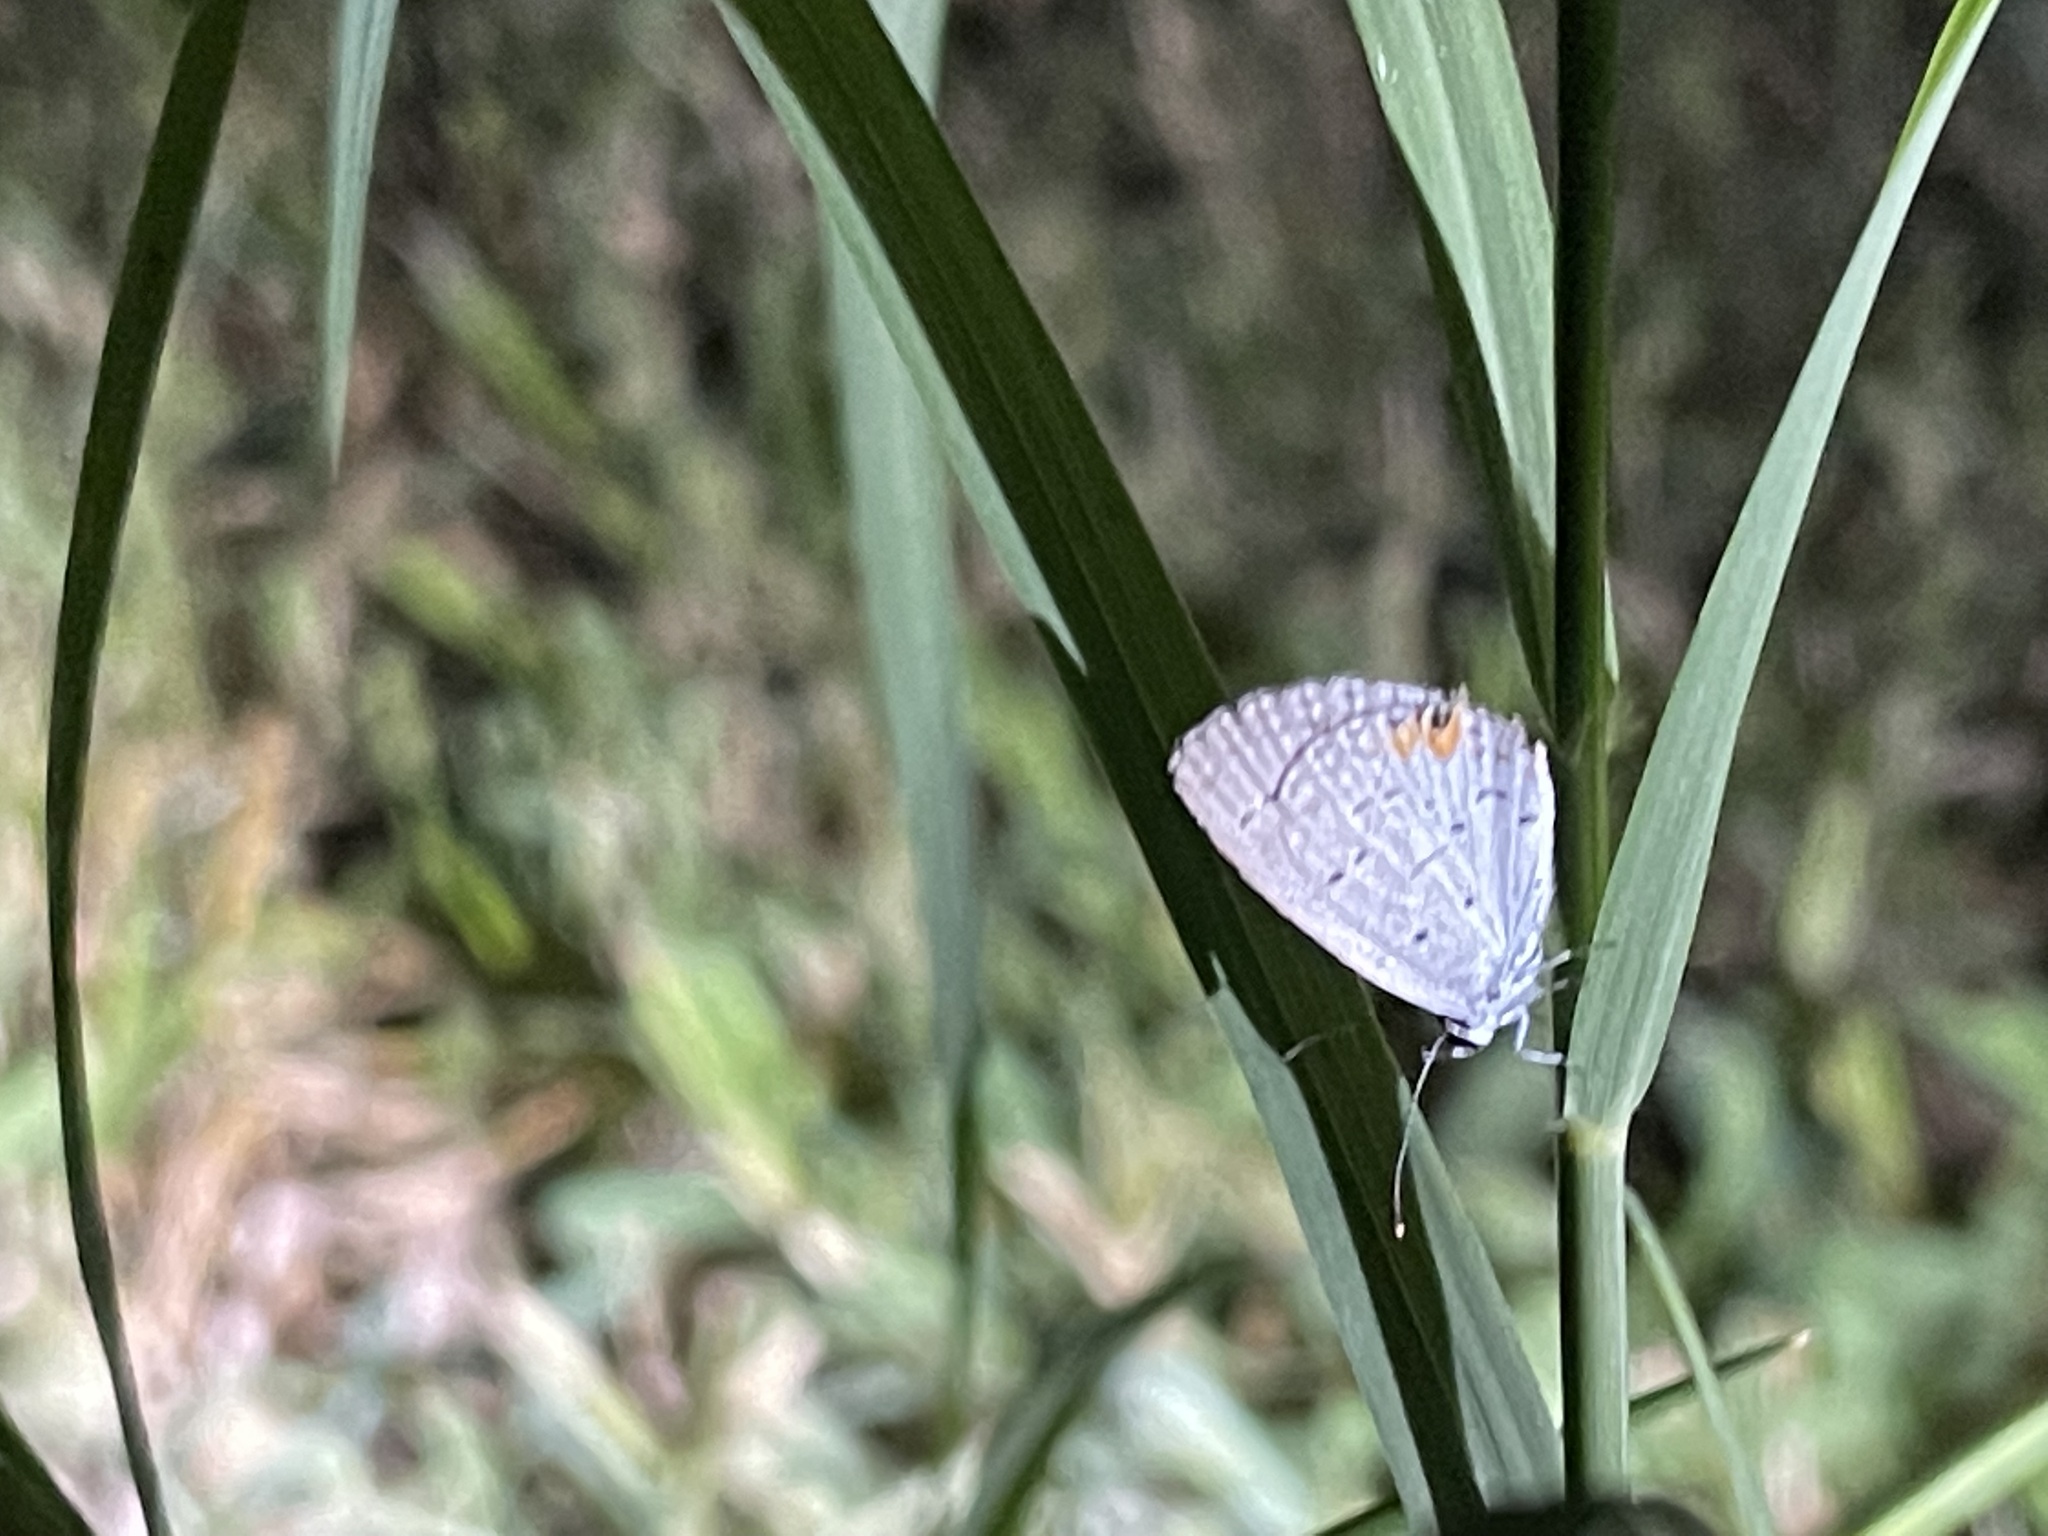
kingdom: Animalia
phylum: Arthropoda
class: Insecta
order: Lepidoptera
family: Lycaenidae
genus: Elkalyce
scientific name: Elkalyce comyntas
